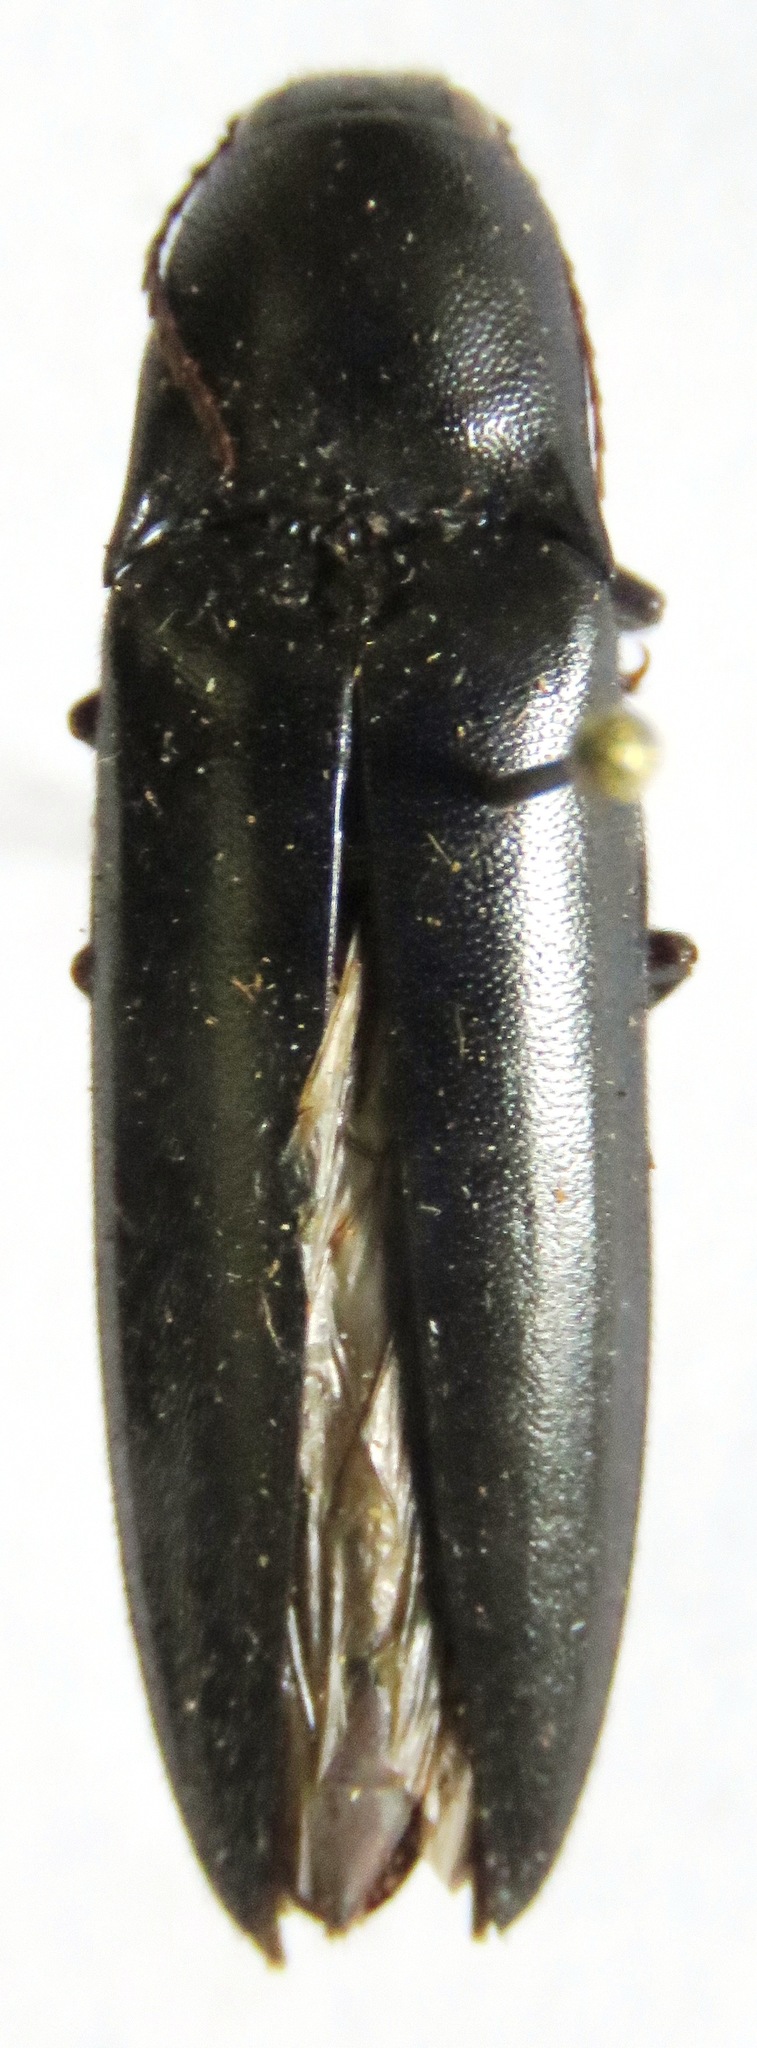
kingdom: Animalia
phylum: Arthropoda
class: Insecta
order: Coleoptera
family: Elateridae
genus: Orthostethus
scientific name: Orthostethus
